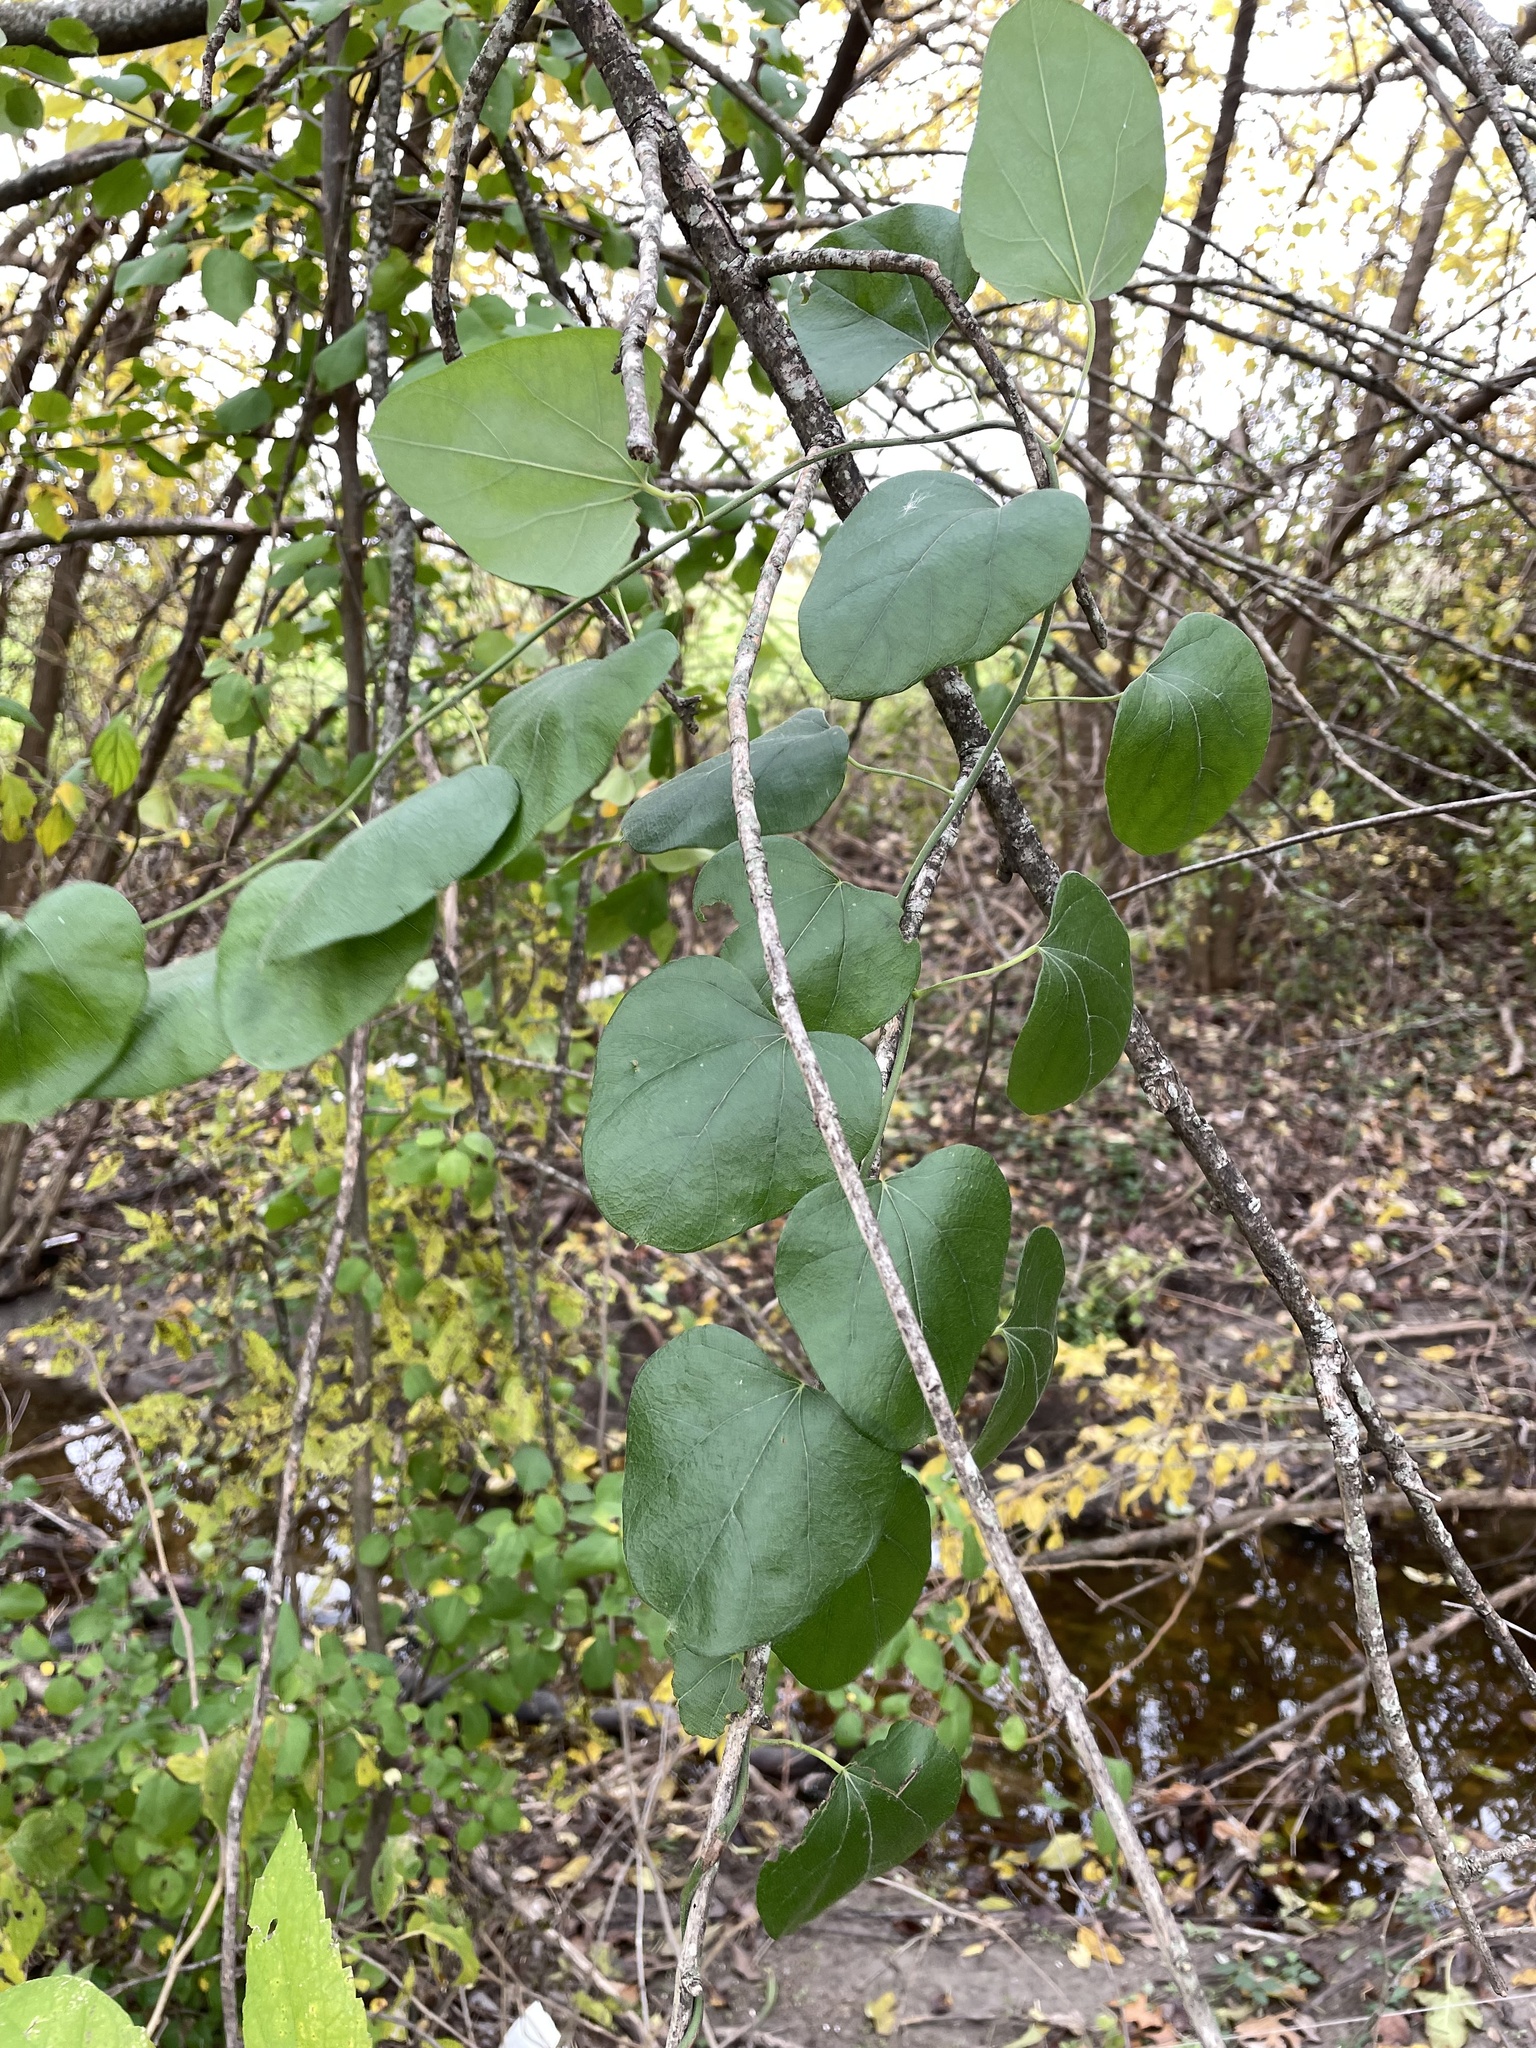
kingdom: Plantae
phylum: Tracheophyta
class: Magnoliopsida
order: Ranunculales
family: Menispermaceae
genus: Cocculus
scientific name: Cocculus carolinus
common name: Carolina moonseed
